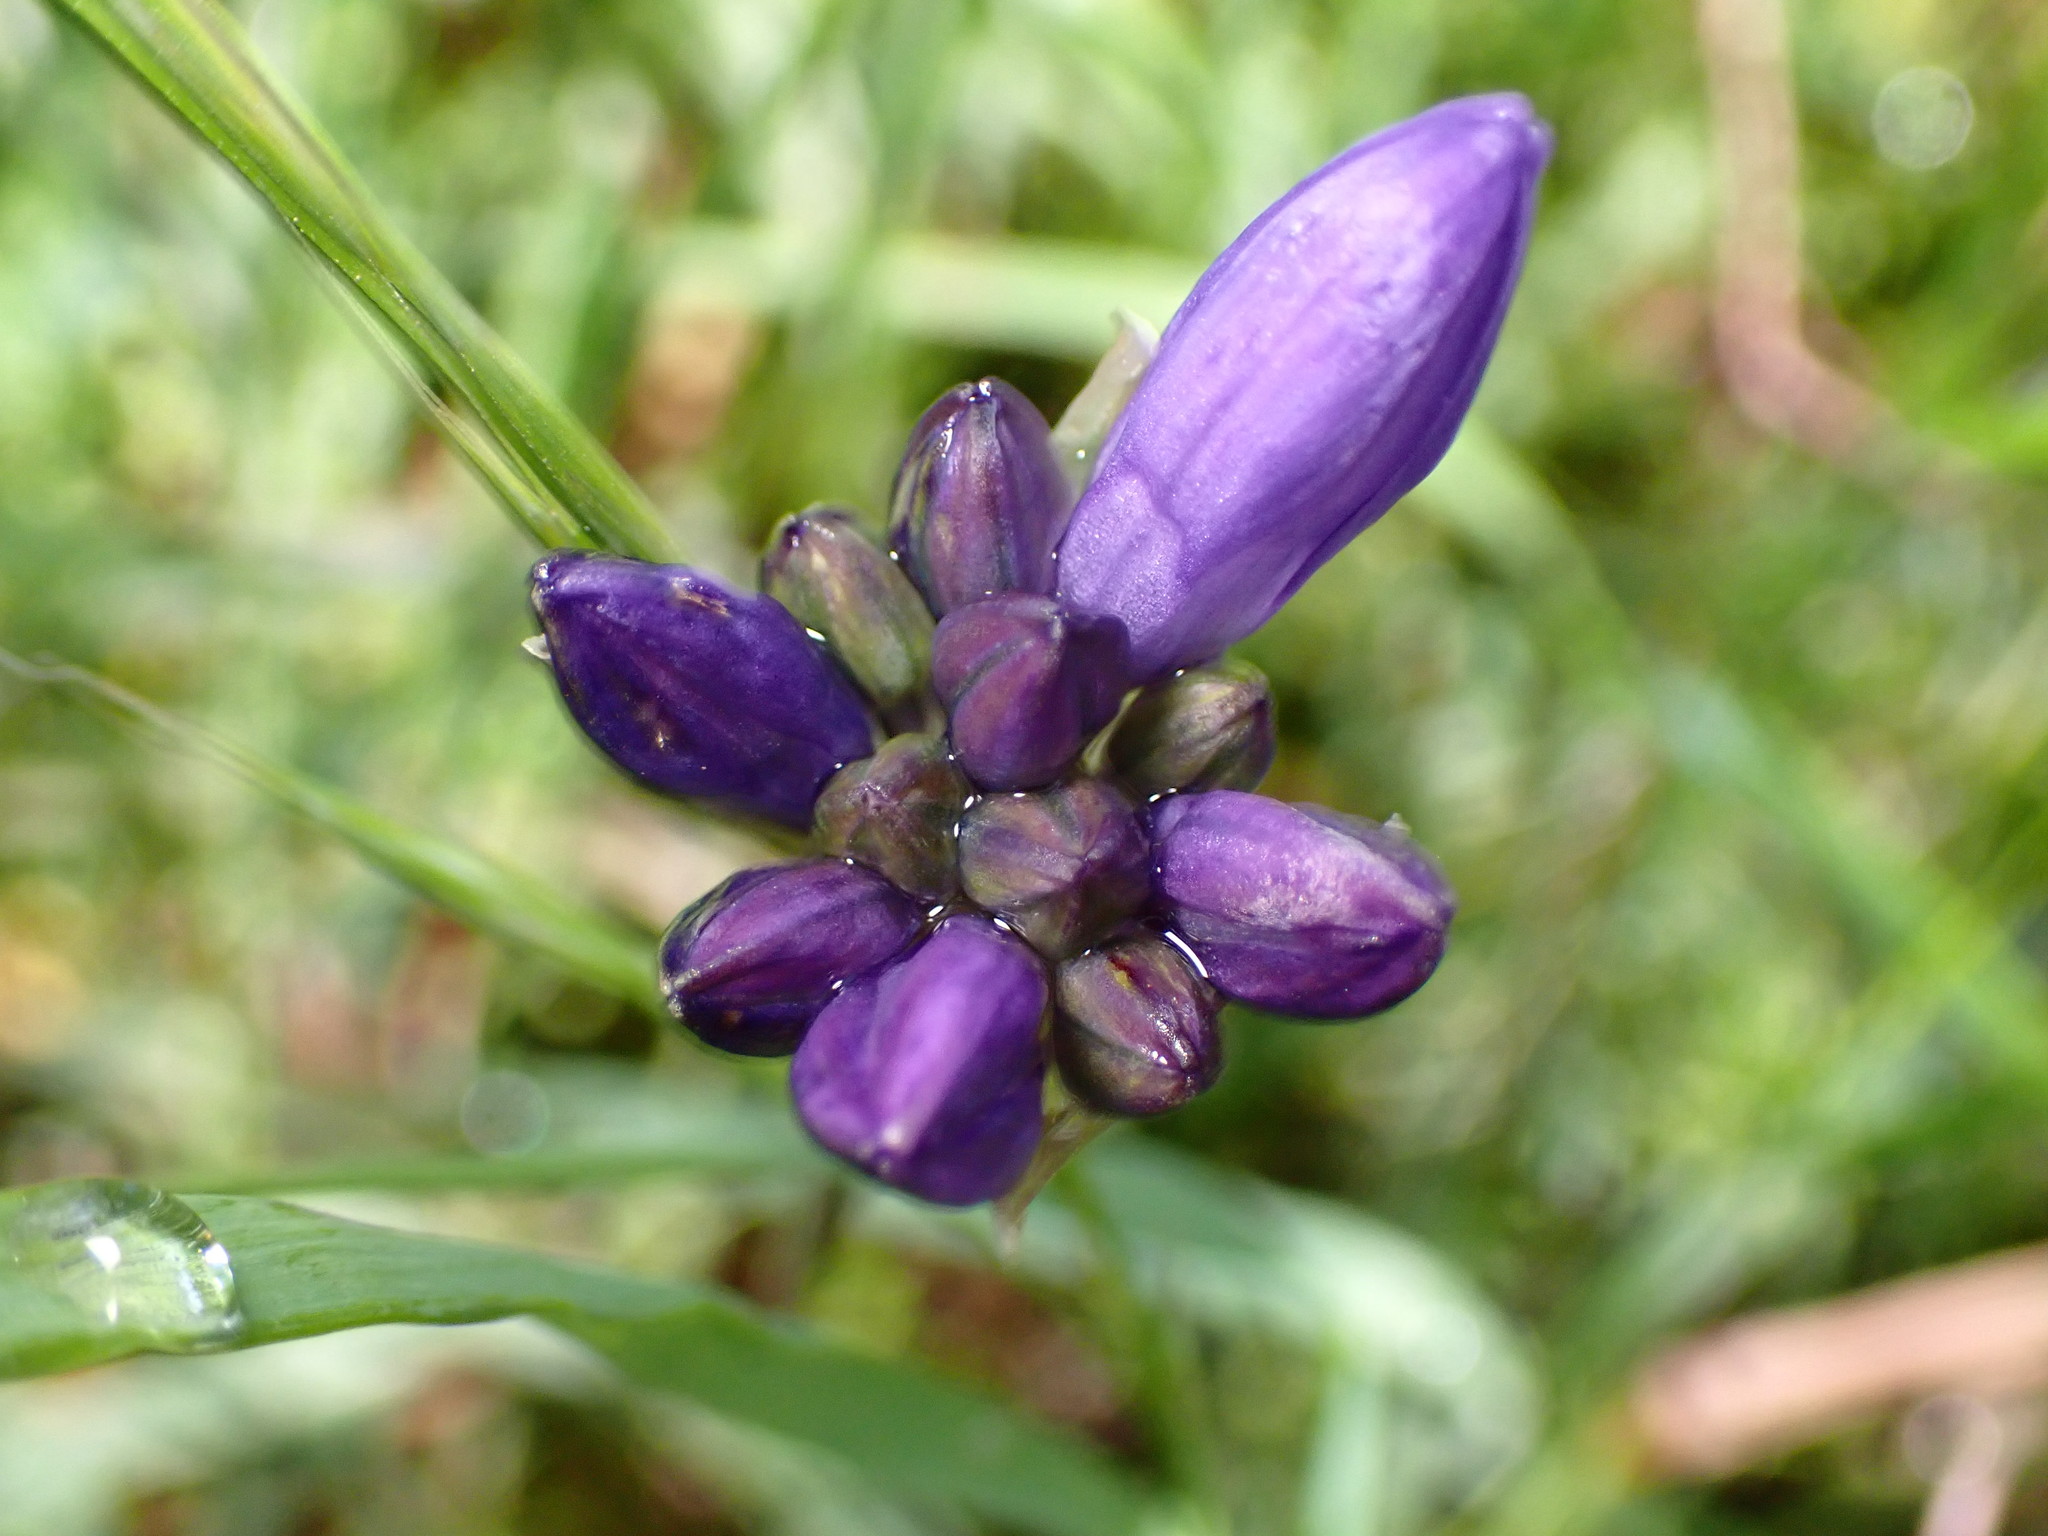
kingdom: Plantae
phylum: Tracheophyta
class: Liliopsida
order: Asparagales
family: Asparagaceae
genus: Dipterostemon
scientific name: Dipterostemon capitatus
